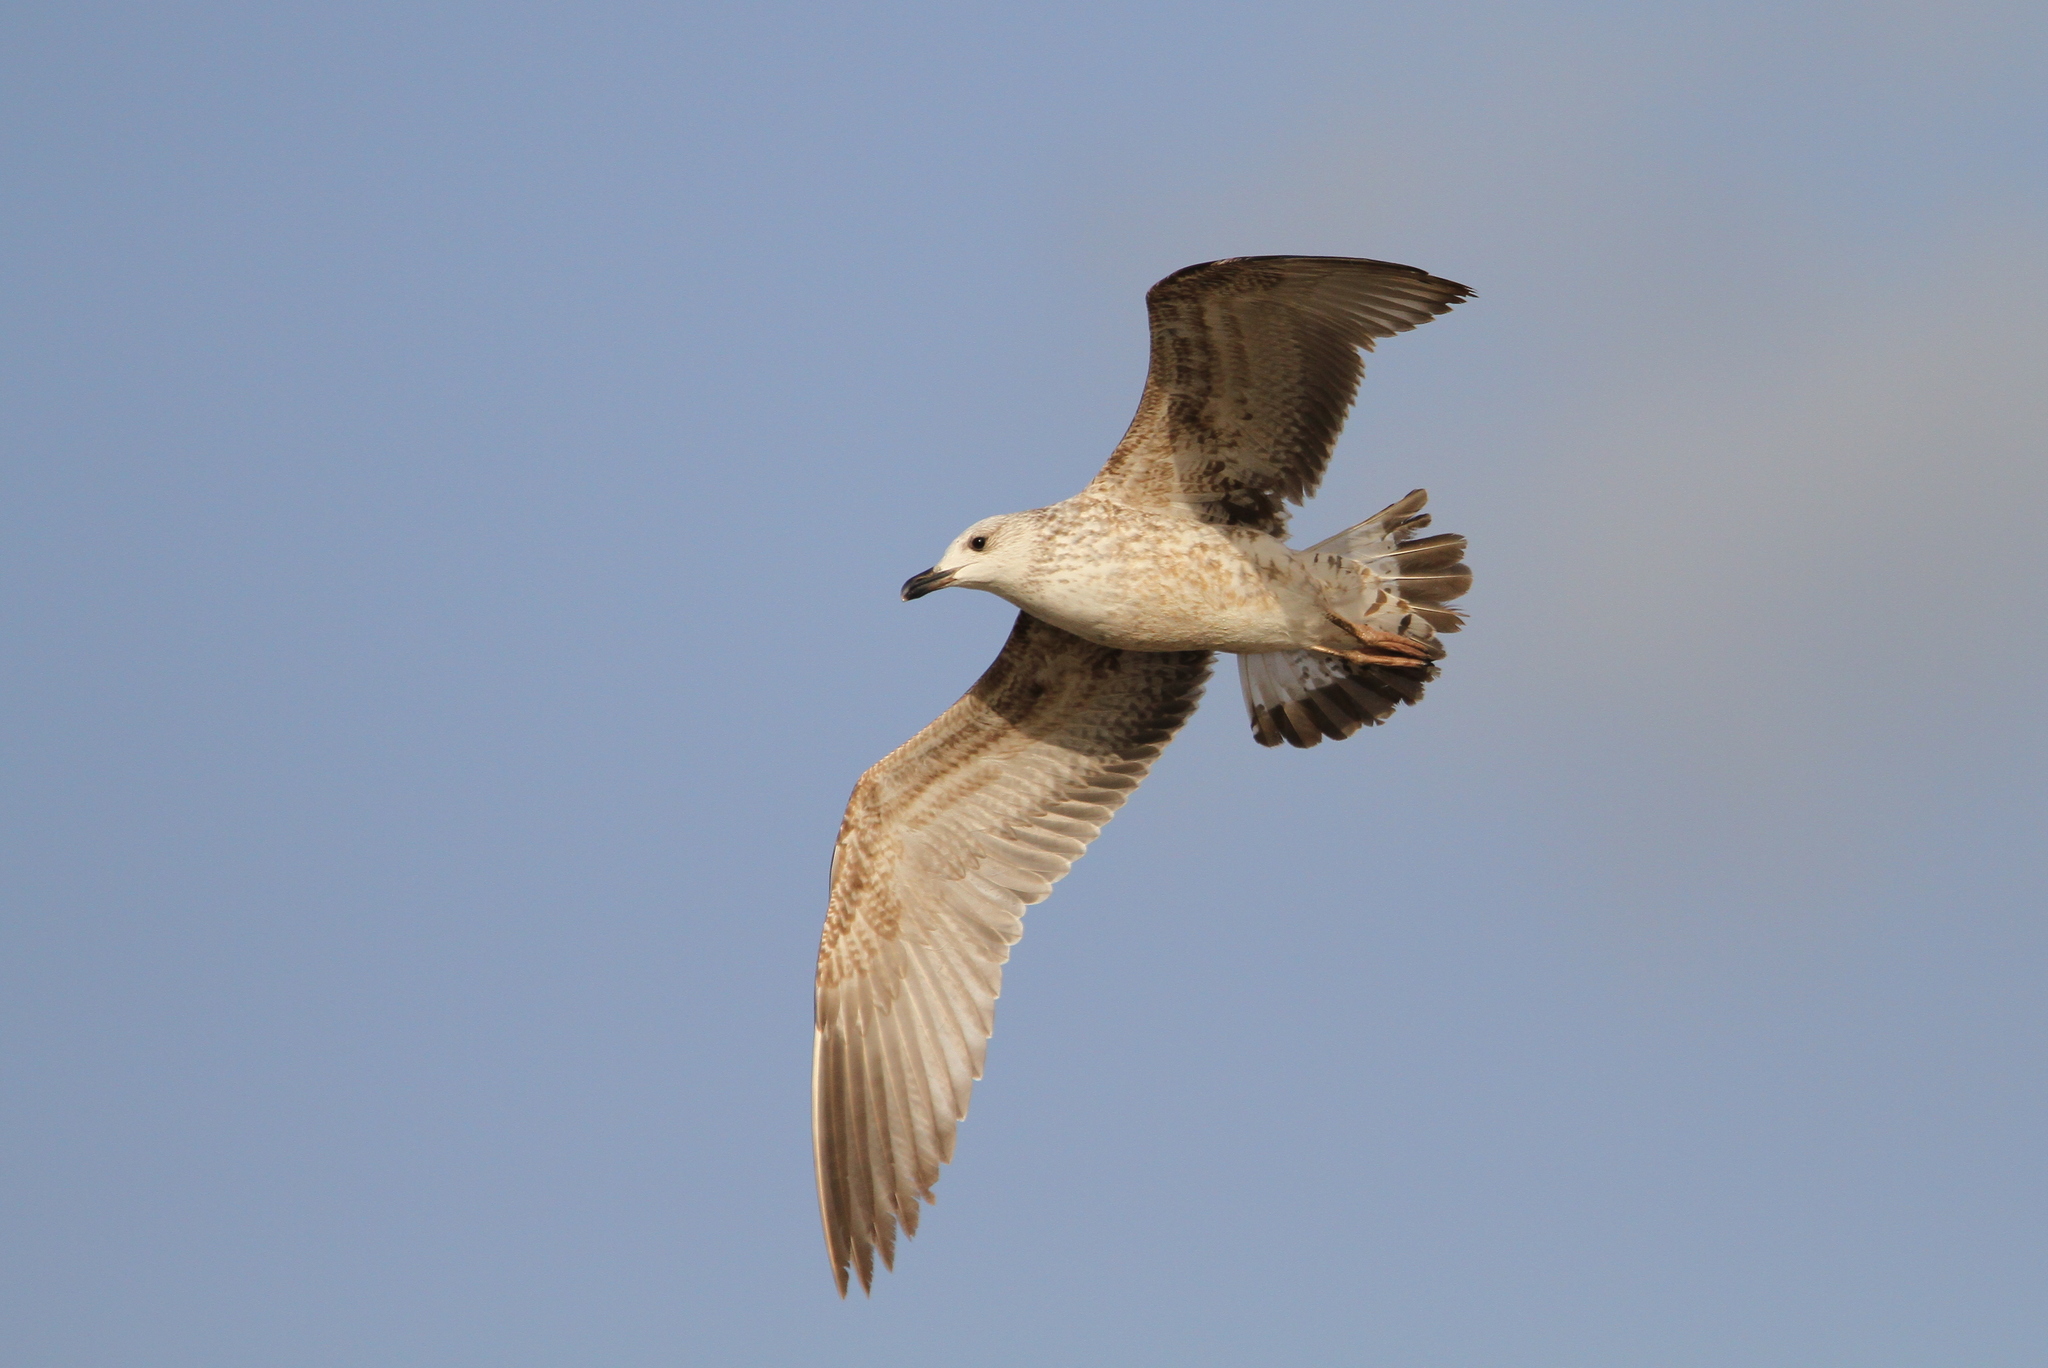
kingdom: Animalia
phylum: Chordata
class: Aves
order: Charadriiformes
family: Laridae
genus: Larus
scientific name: Larus armenicus
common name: Armenian gull
